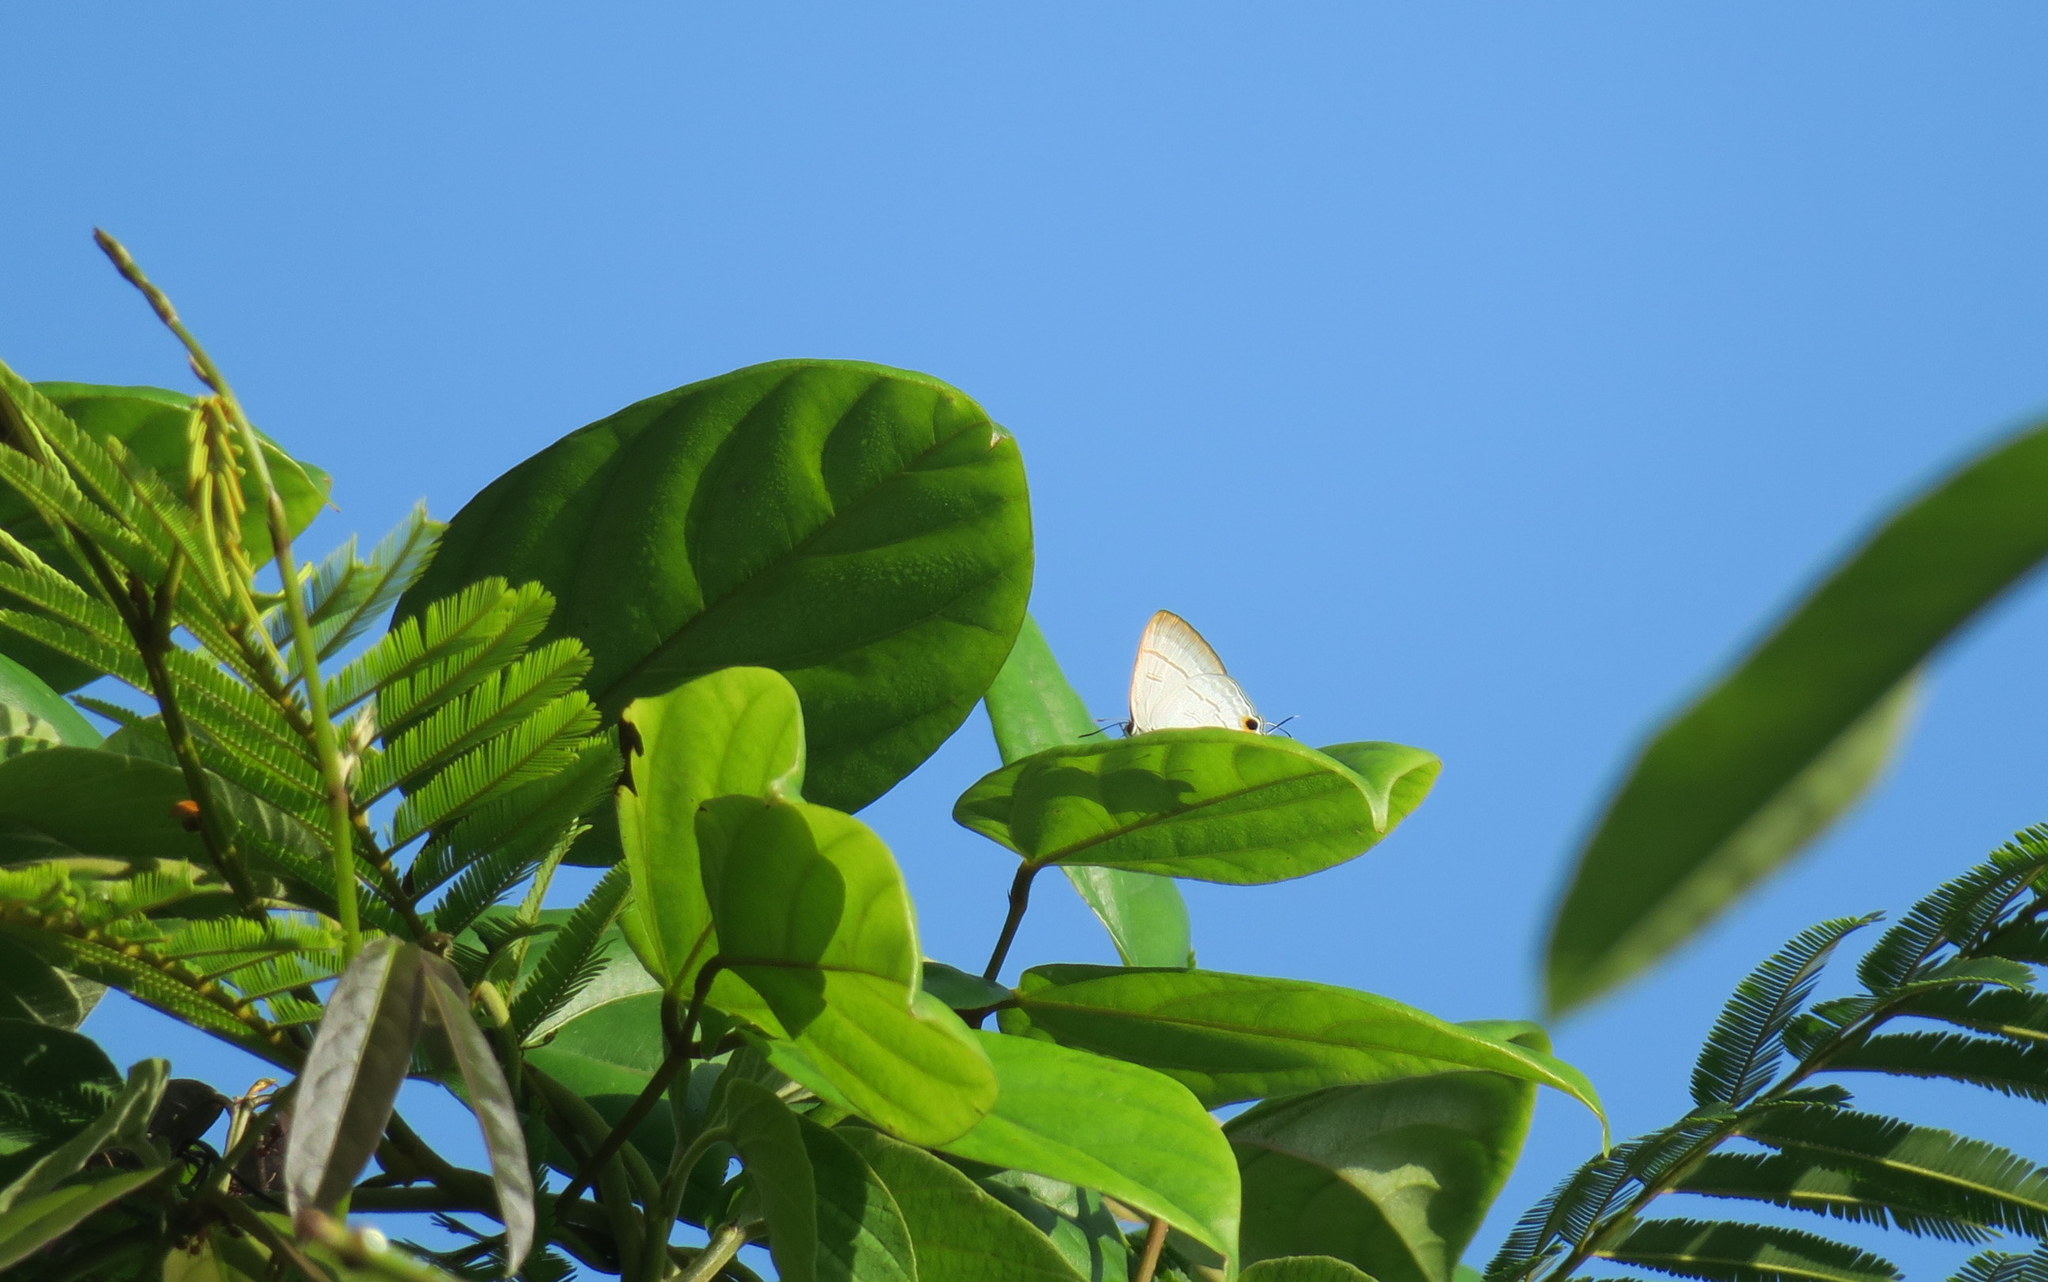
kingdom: Animalia
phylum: Arthropoda
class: Insecta
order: Lepidoptera
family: Lycaenidae
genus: Hypolycaena
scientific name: Hypolycaena erylus
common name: Common tit
